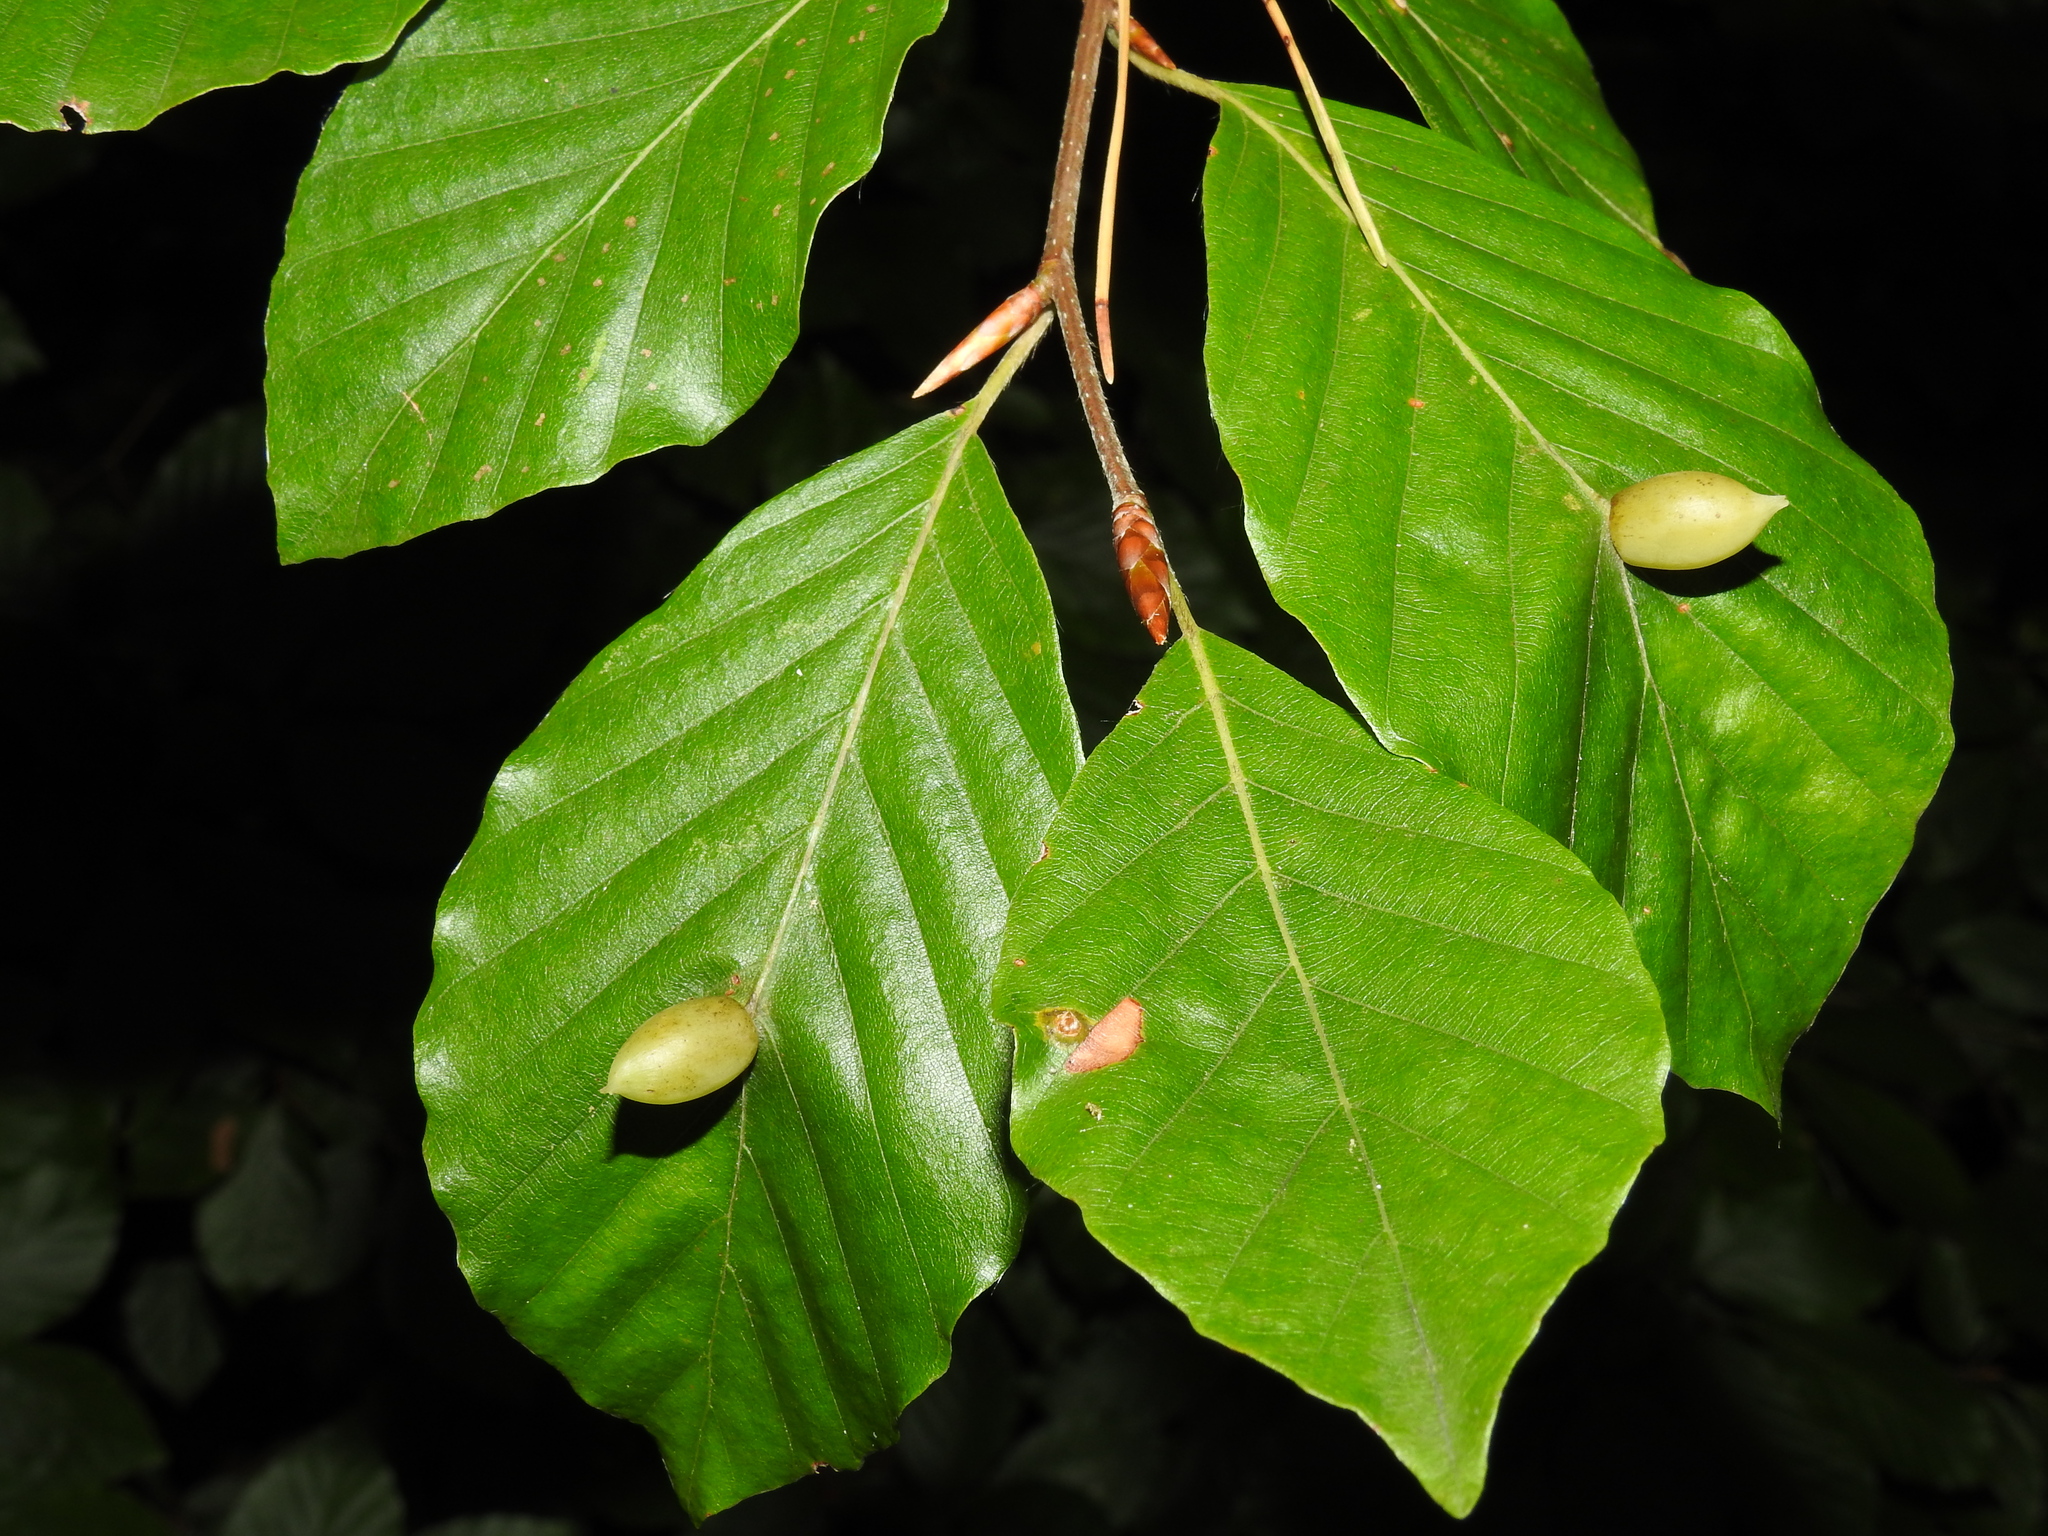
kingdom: Animalia
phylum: Arthropoda
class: Insecta
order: Diptera
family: Cecidomyiidae
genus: Mikiola
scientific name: Mikiola fagi
